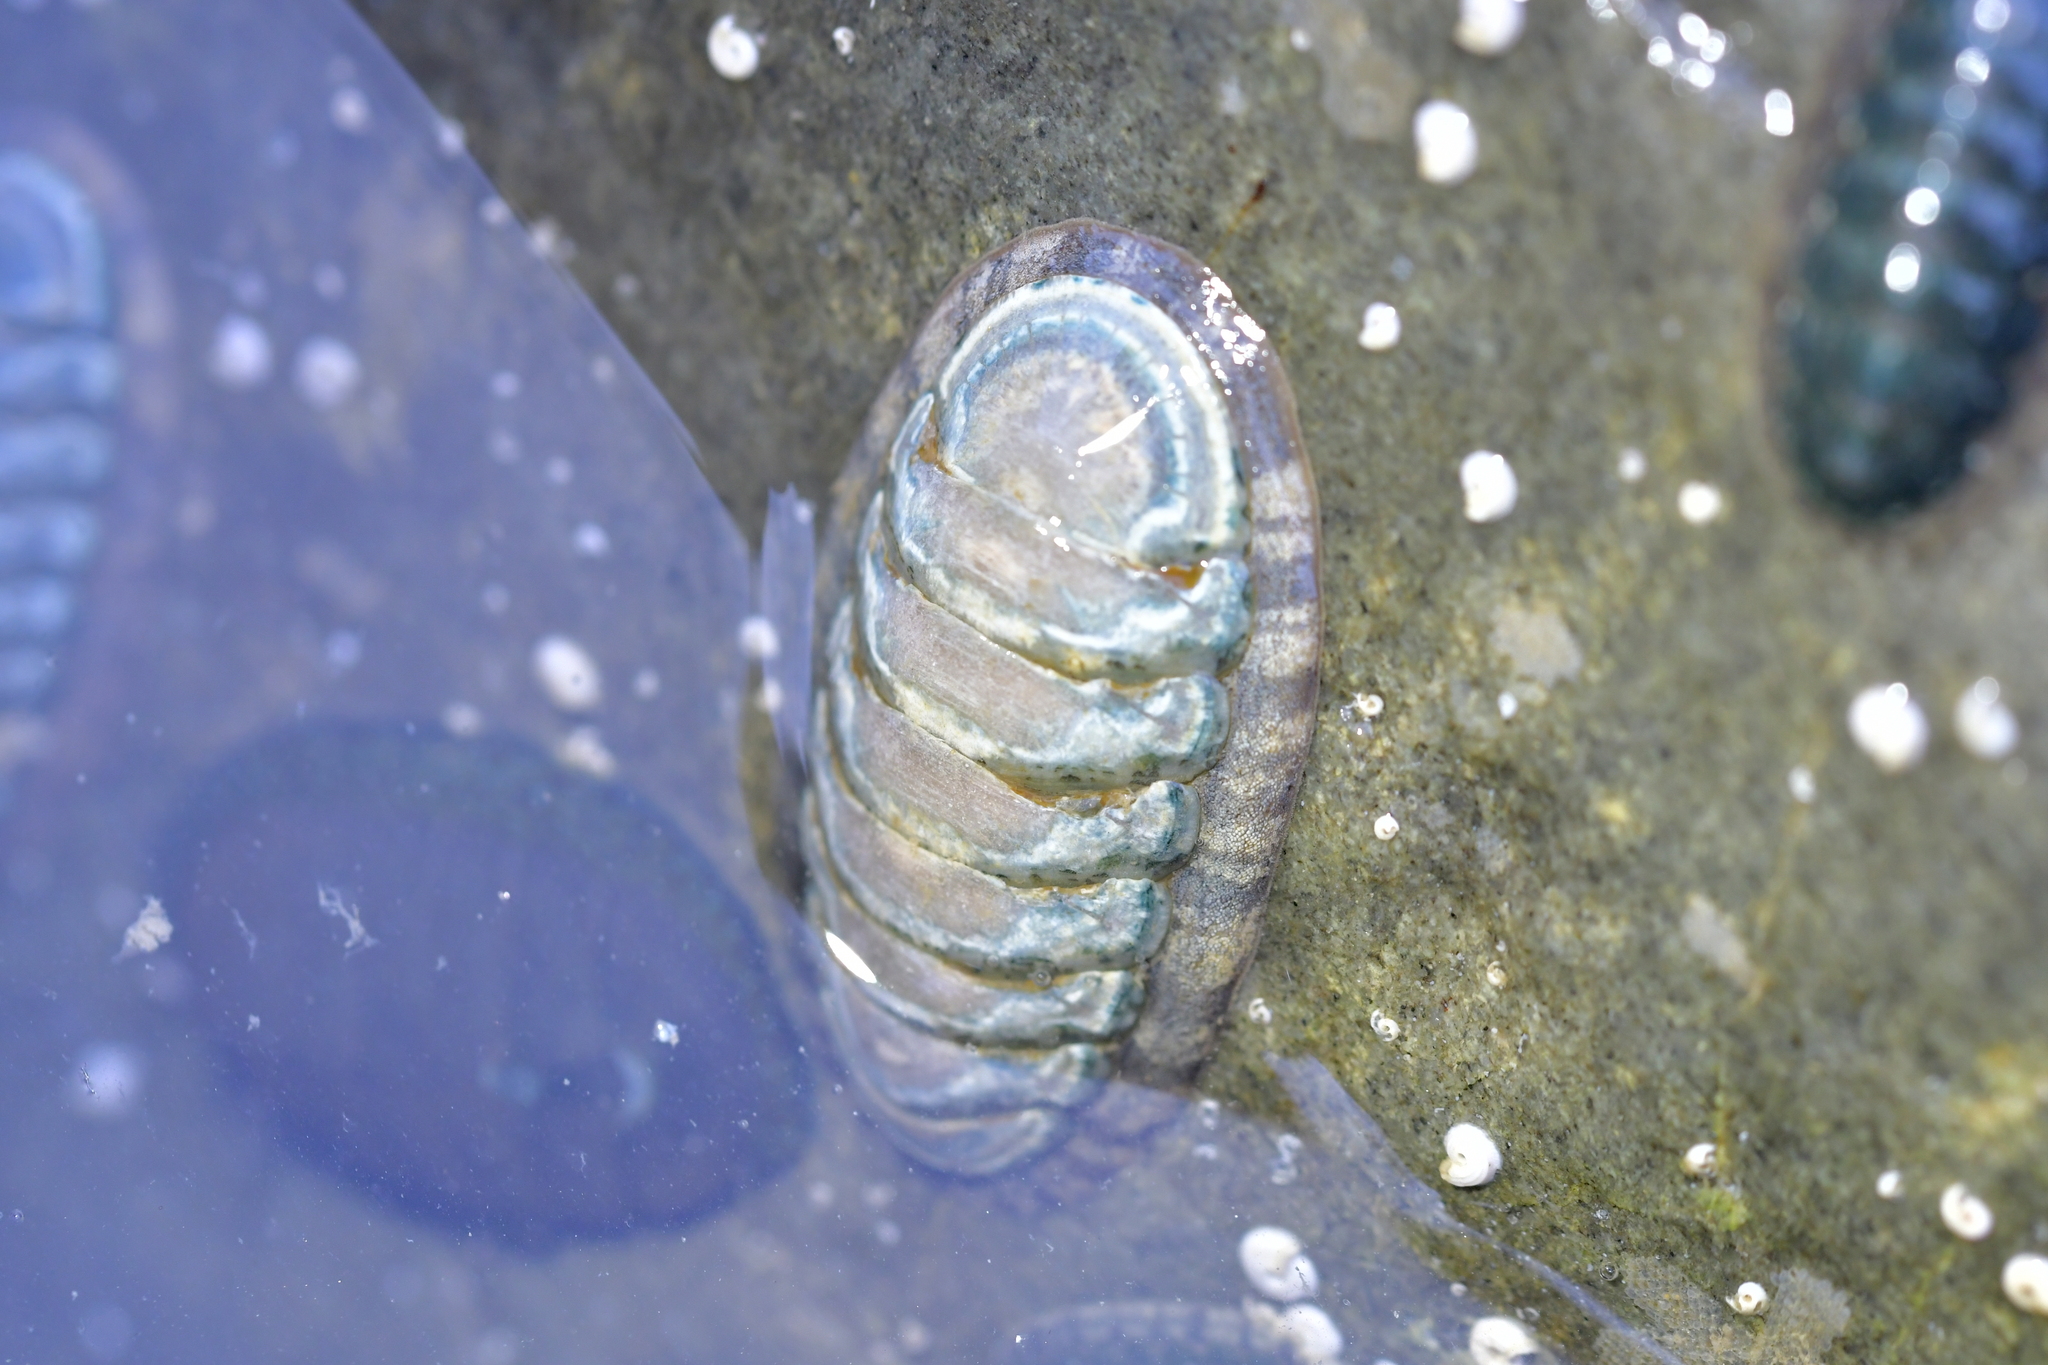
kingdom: Animalia
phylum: Mollusca
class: Polyplacophora
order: Chitonida
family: Ischnochitonidae
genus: Ischnochiton
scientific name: Ischnochiton maorianus
